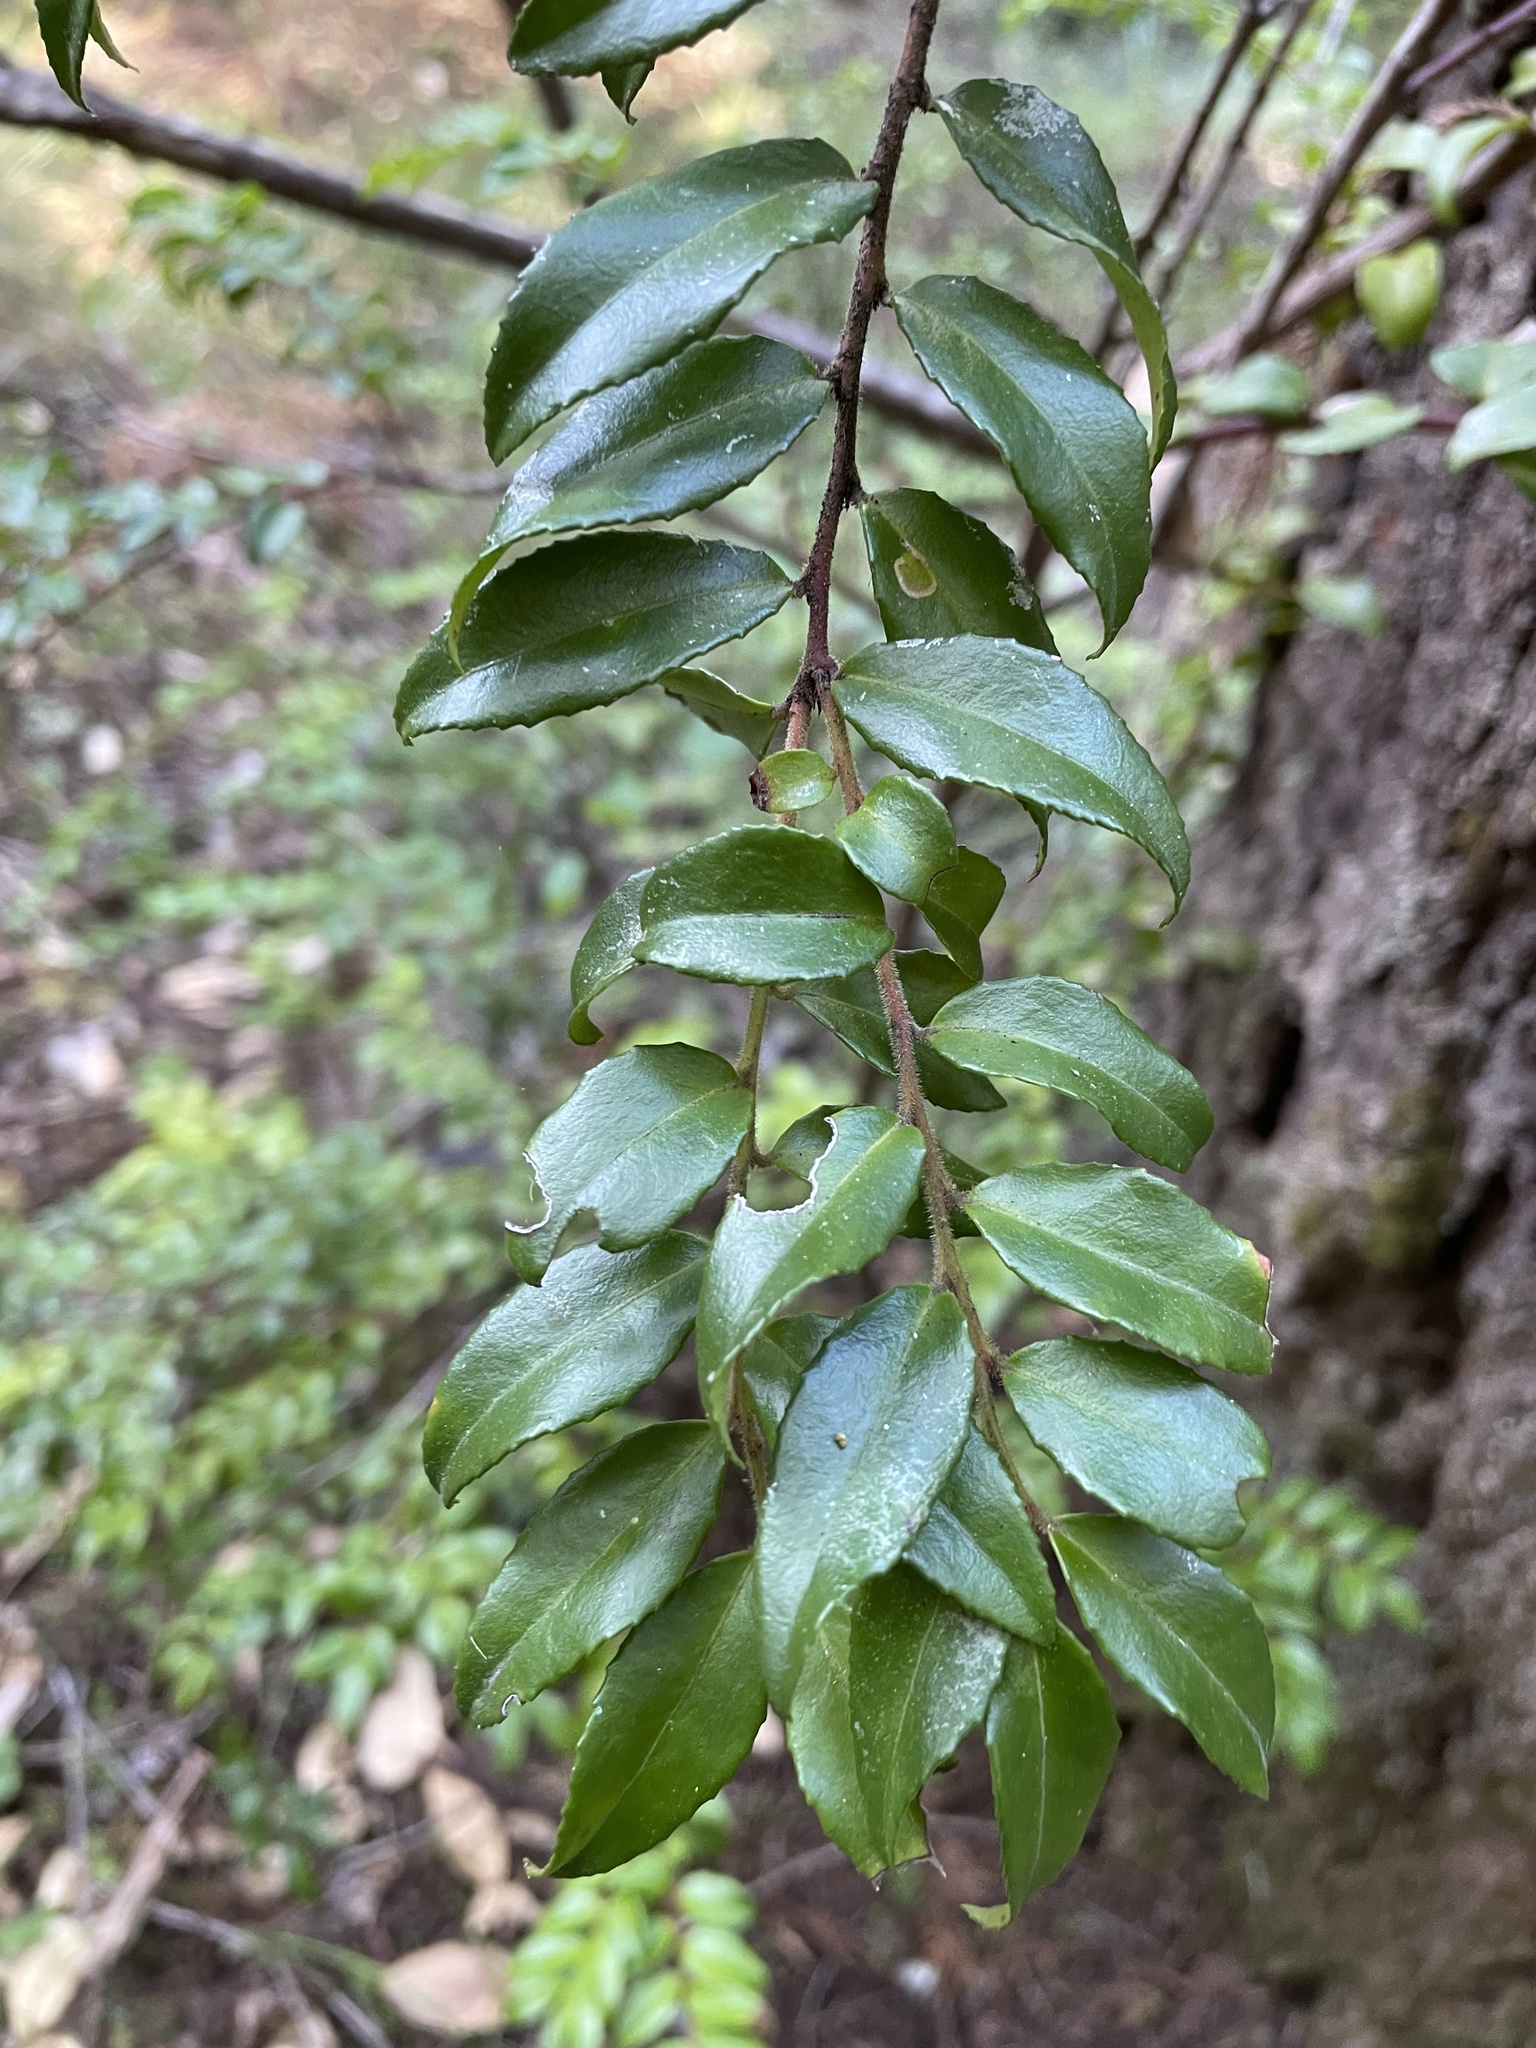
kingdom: Plantae
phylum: Tracheophyta
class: Magnoliopsida
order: Ericales
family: Ericaceae
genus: Vaccinium
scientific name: Vaccinium ovatum
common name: California-huckleberry
